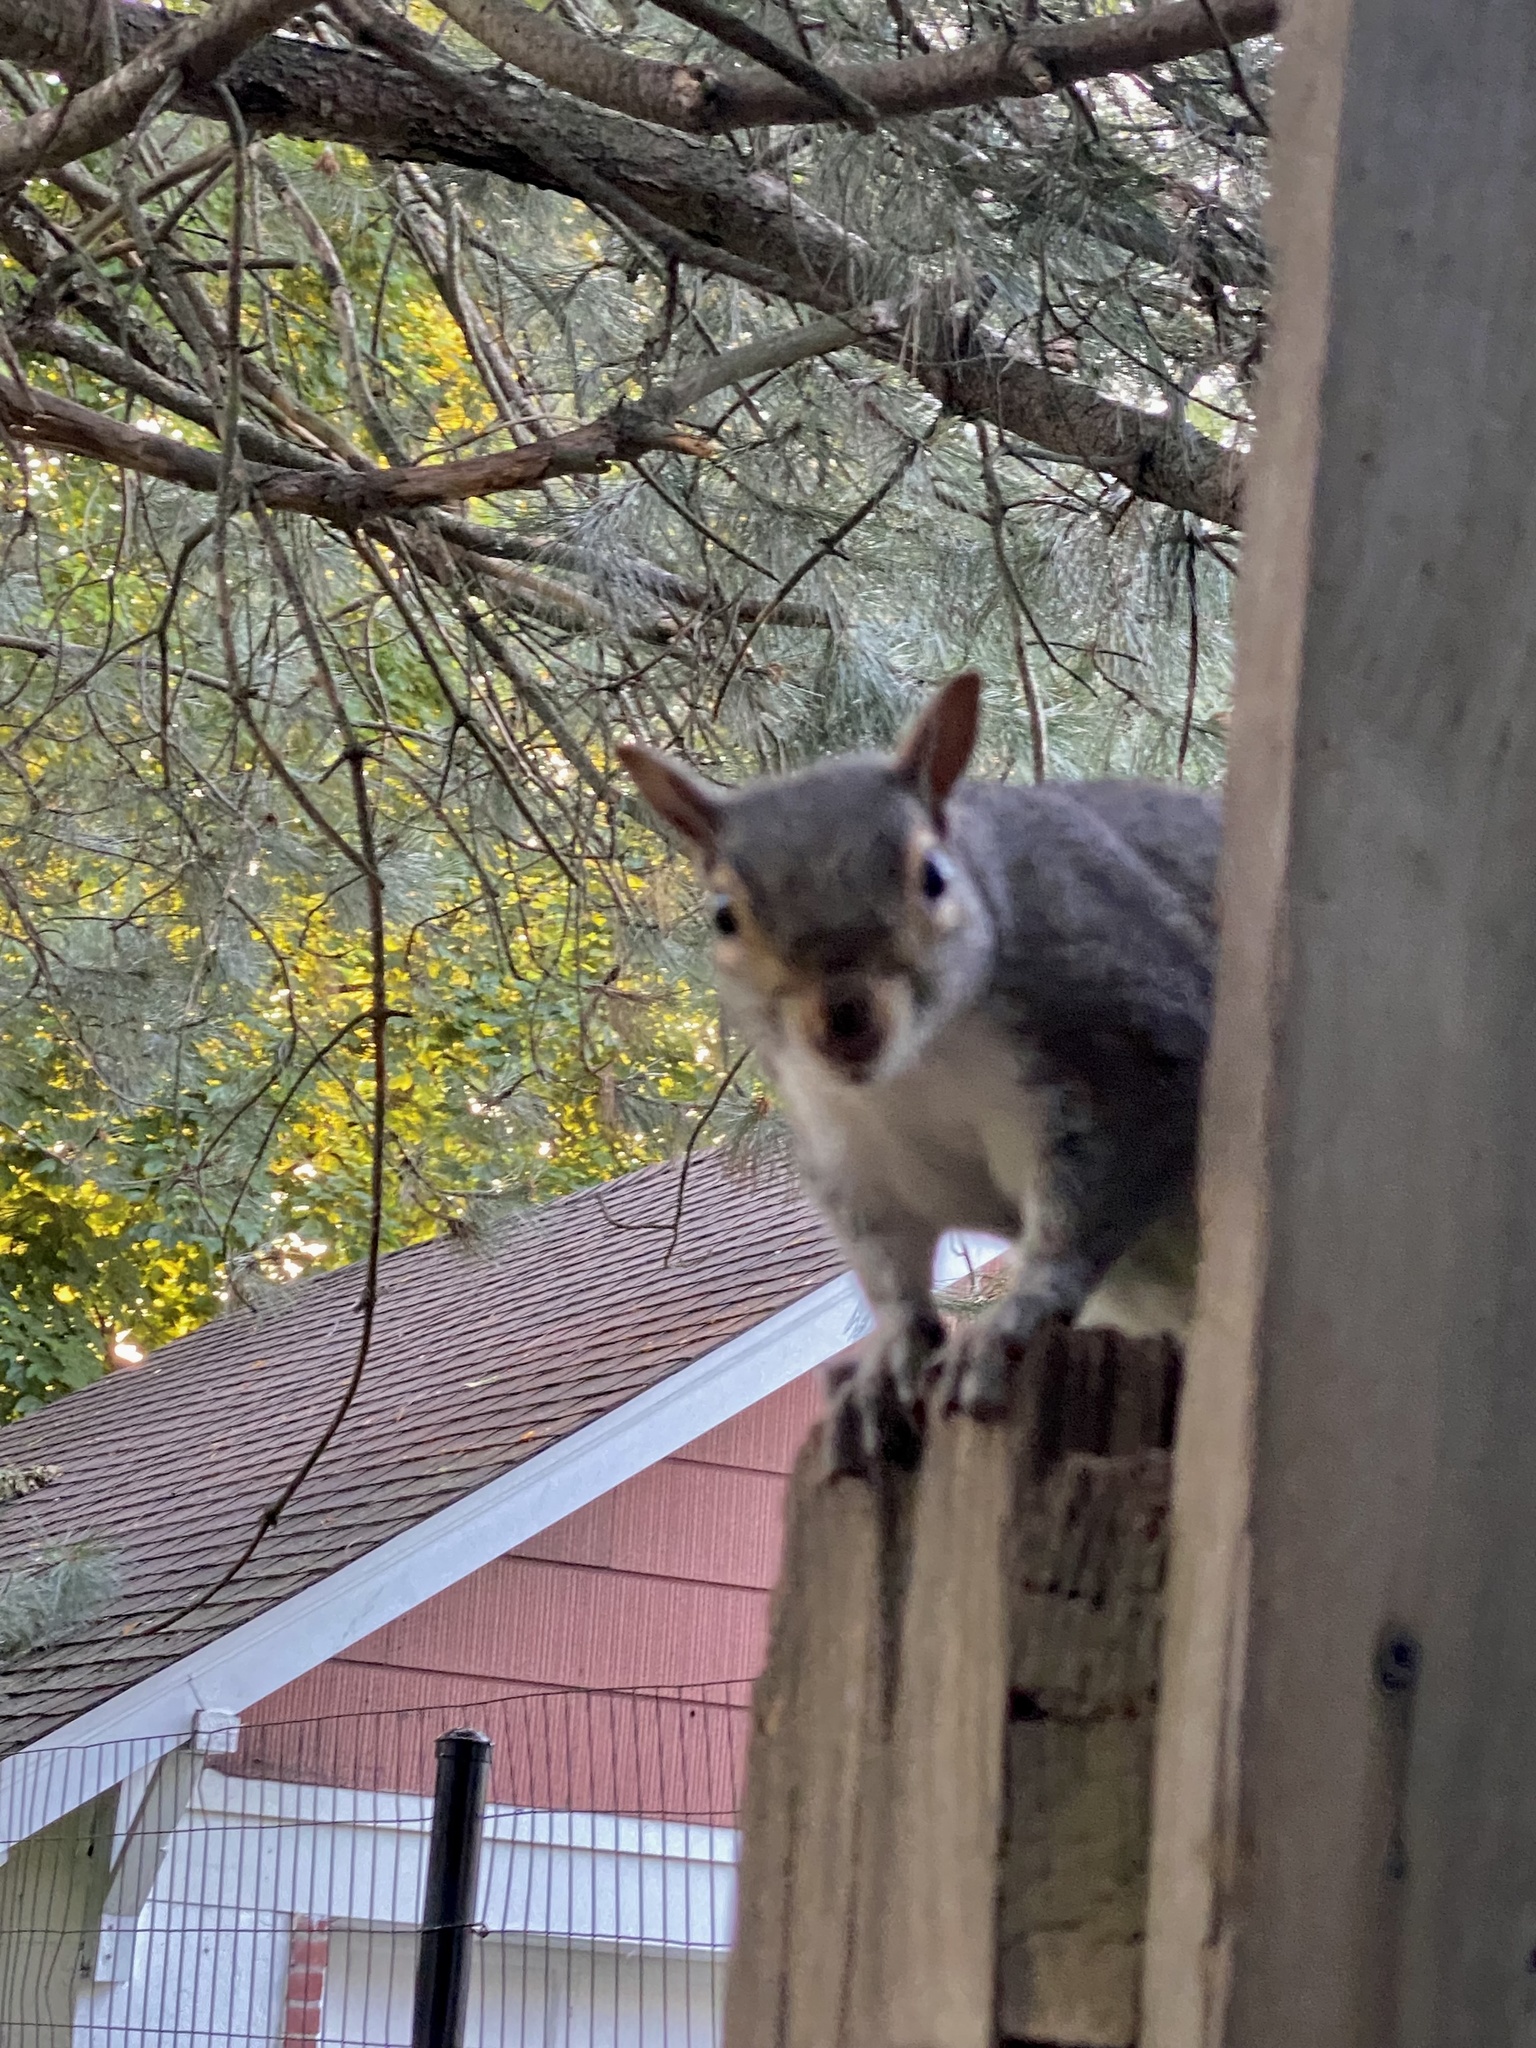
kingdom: Animalia
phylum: Chordata
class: Mammalia
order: Rodentia
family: Sciuridae
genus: Sciurus
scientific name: Sciurus carolinensis
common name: Eastern gray squirrel
